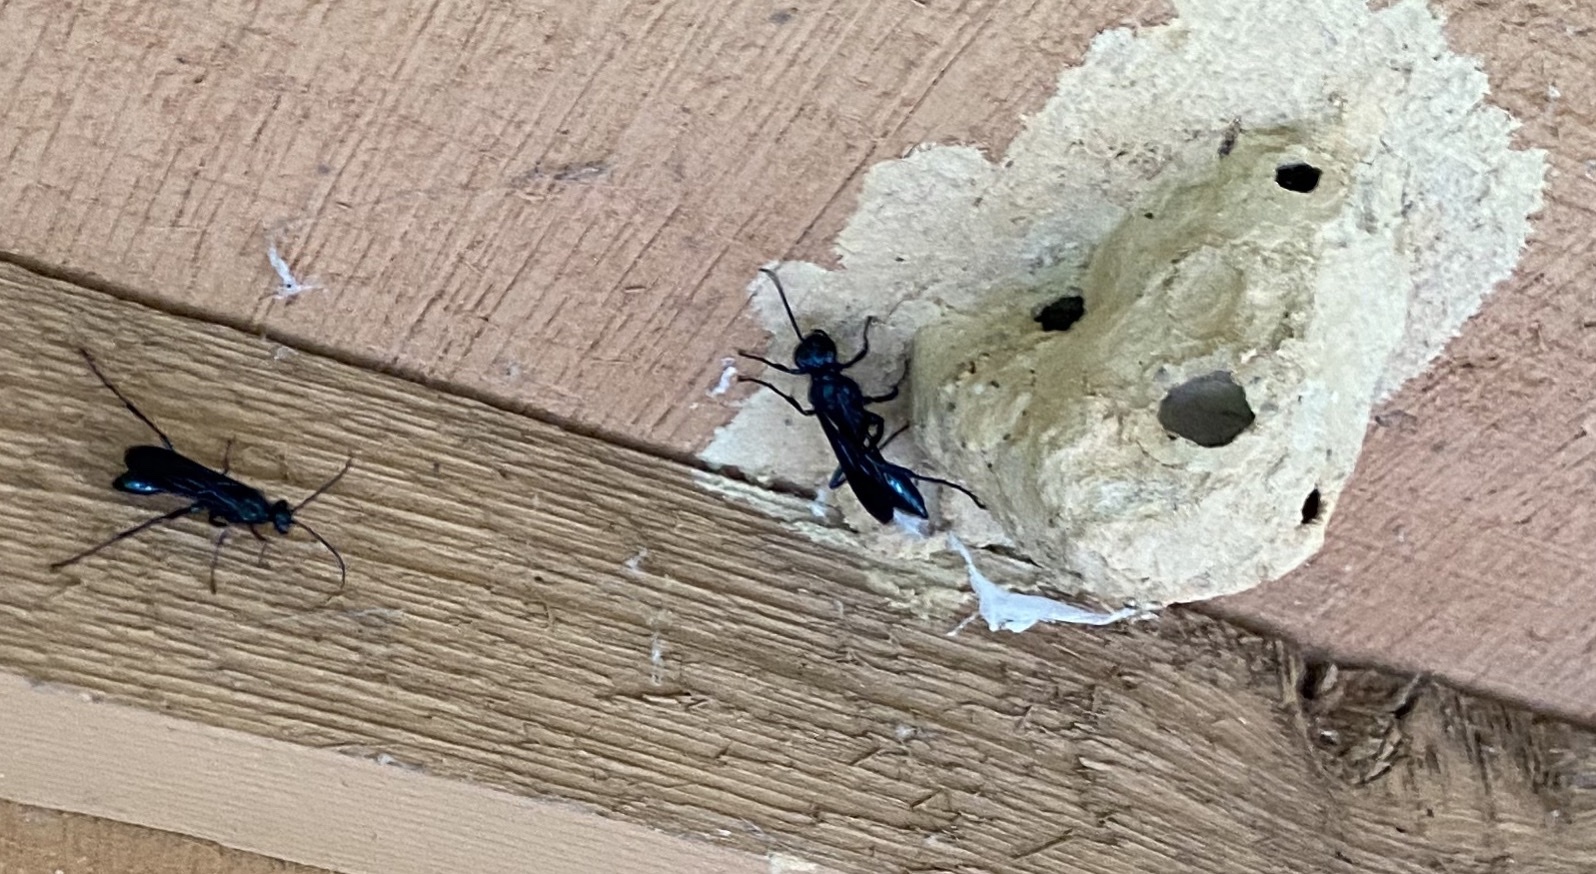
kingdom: Animalia
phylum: Arthropoda
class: Insecta
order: Hymenoptera
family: Sphecidae
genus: Chalybion
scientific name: Chalybion californicum
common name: Mud dauber
